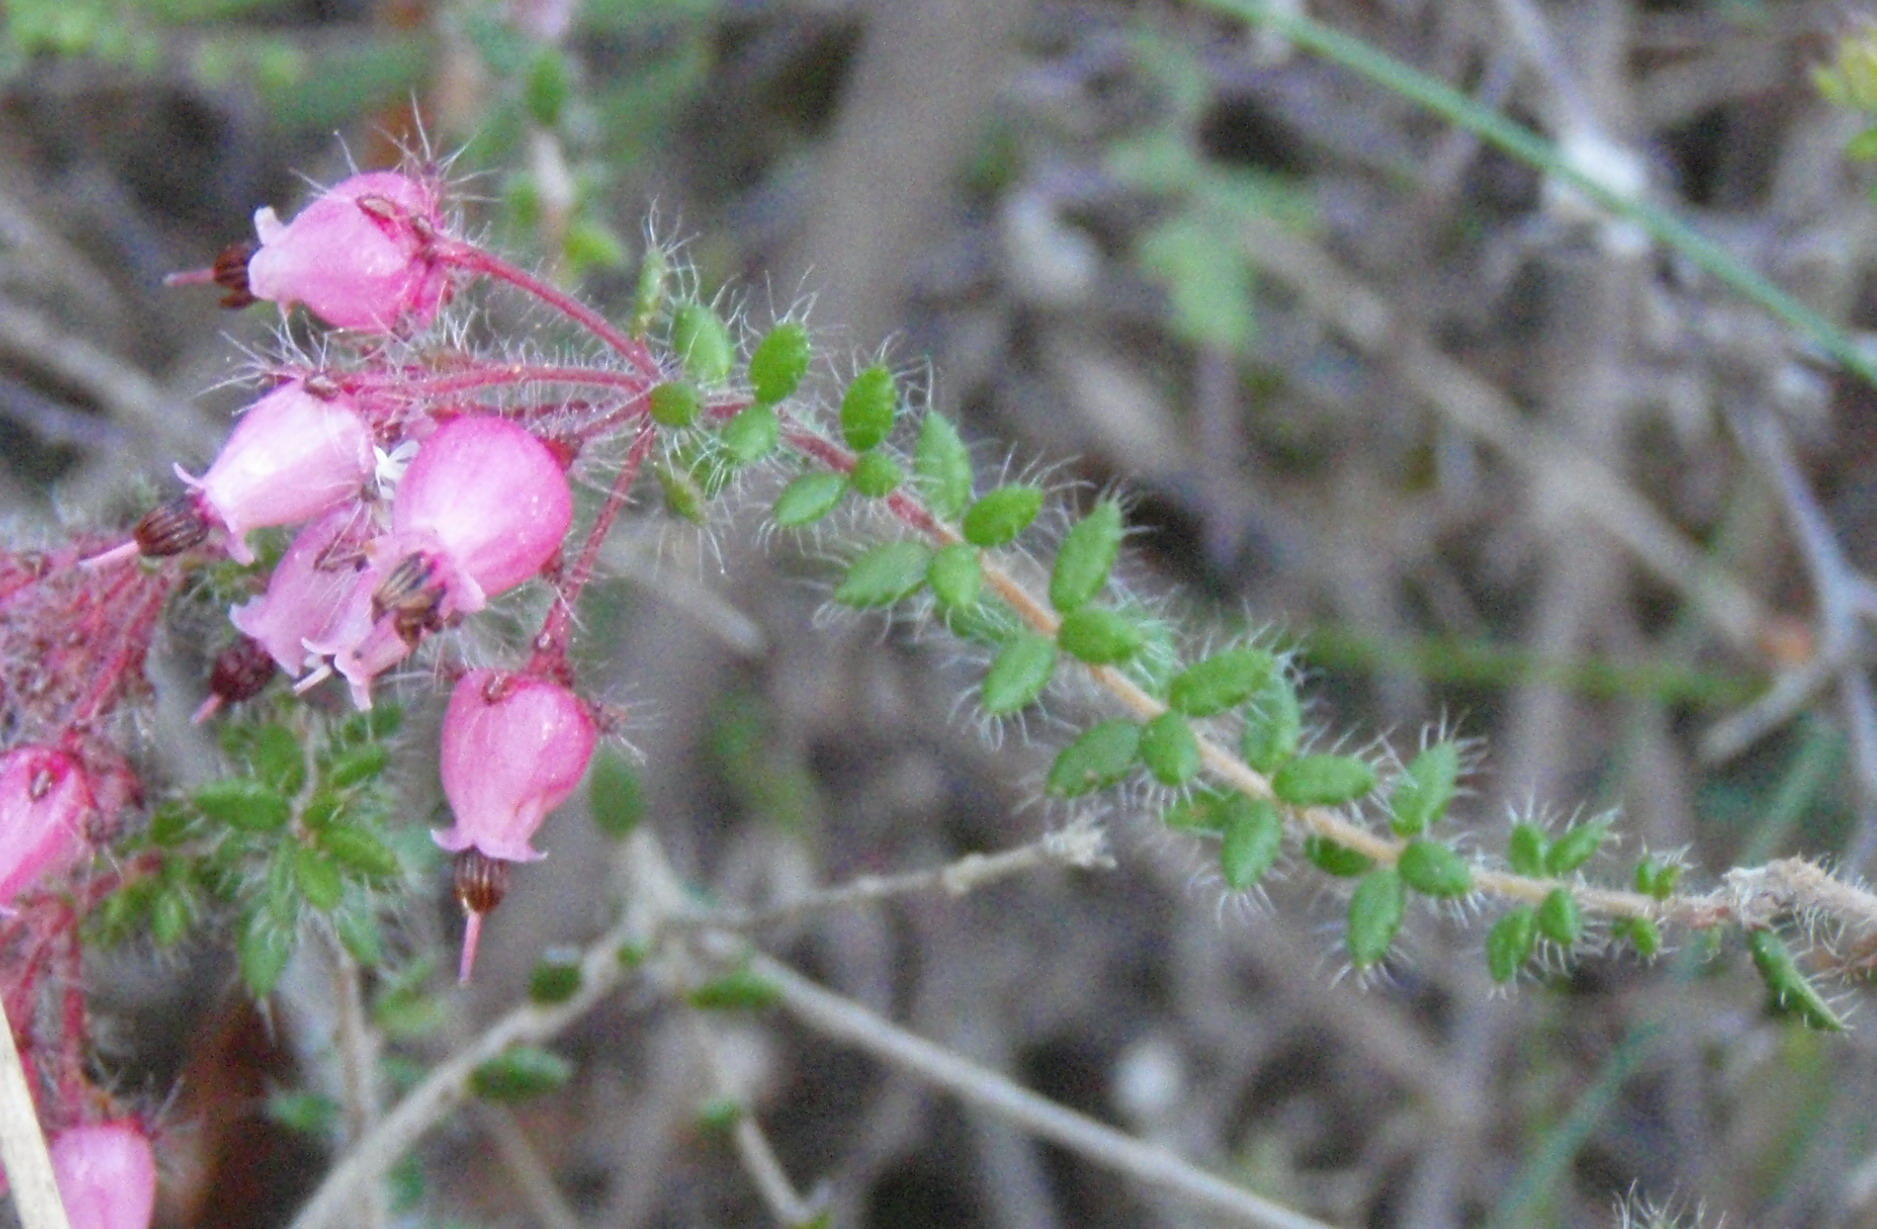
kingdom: Plantae
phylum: Tracheophyta
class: Magnoliopsida
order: Ericales
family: Ericaceae
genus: Erica
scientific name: Erica aneimena
